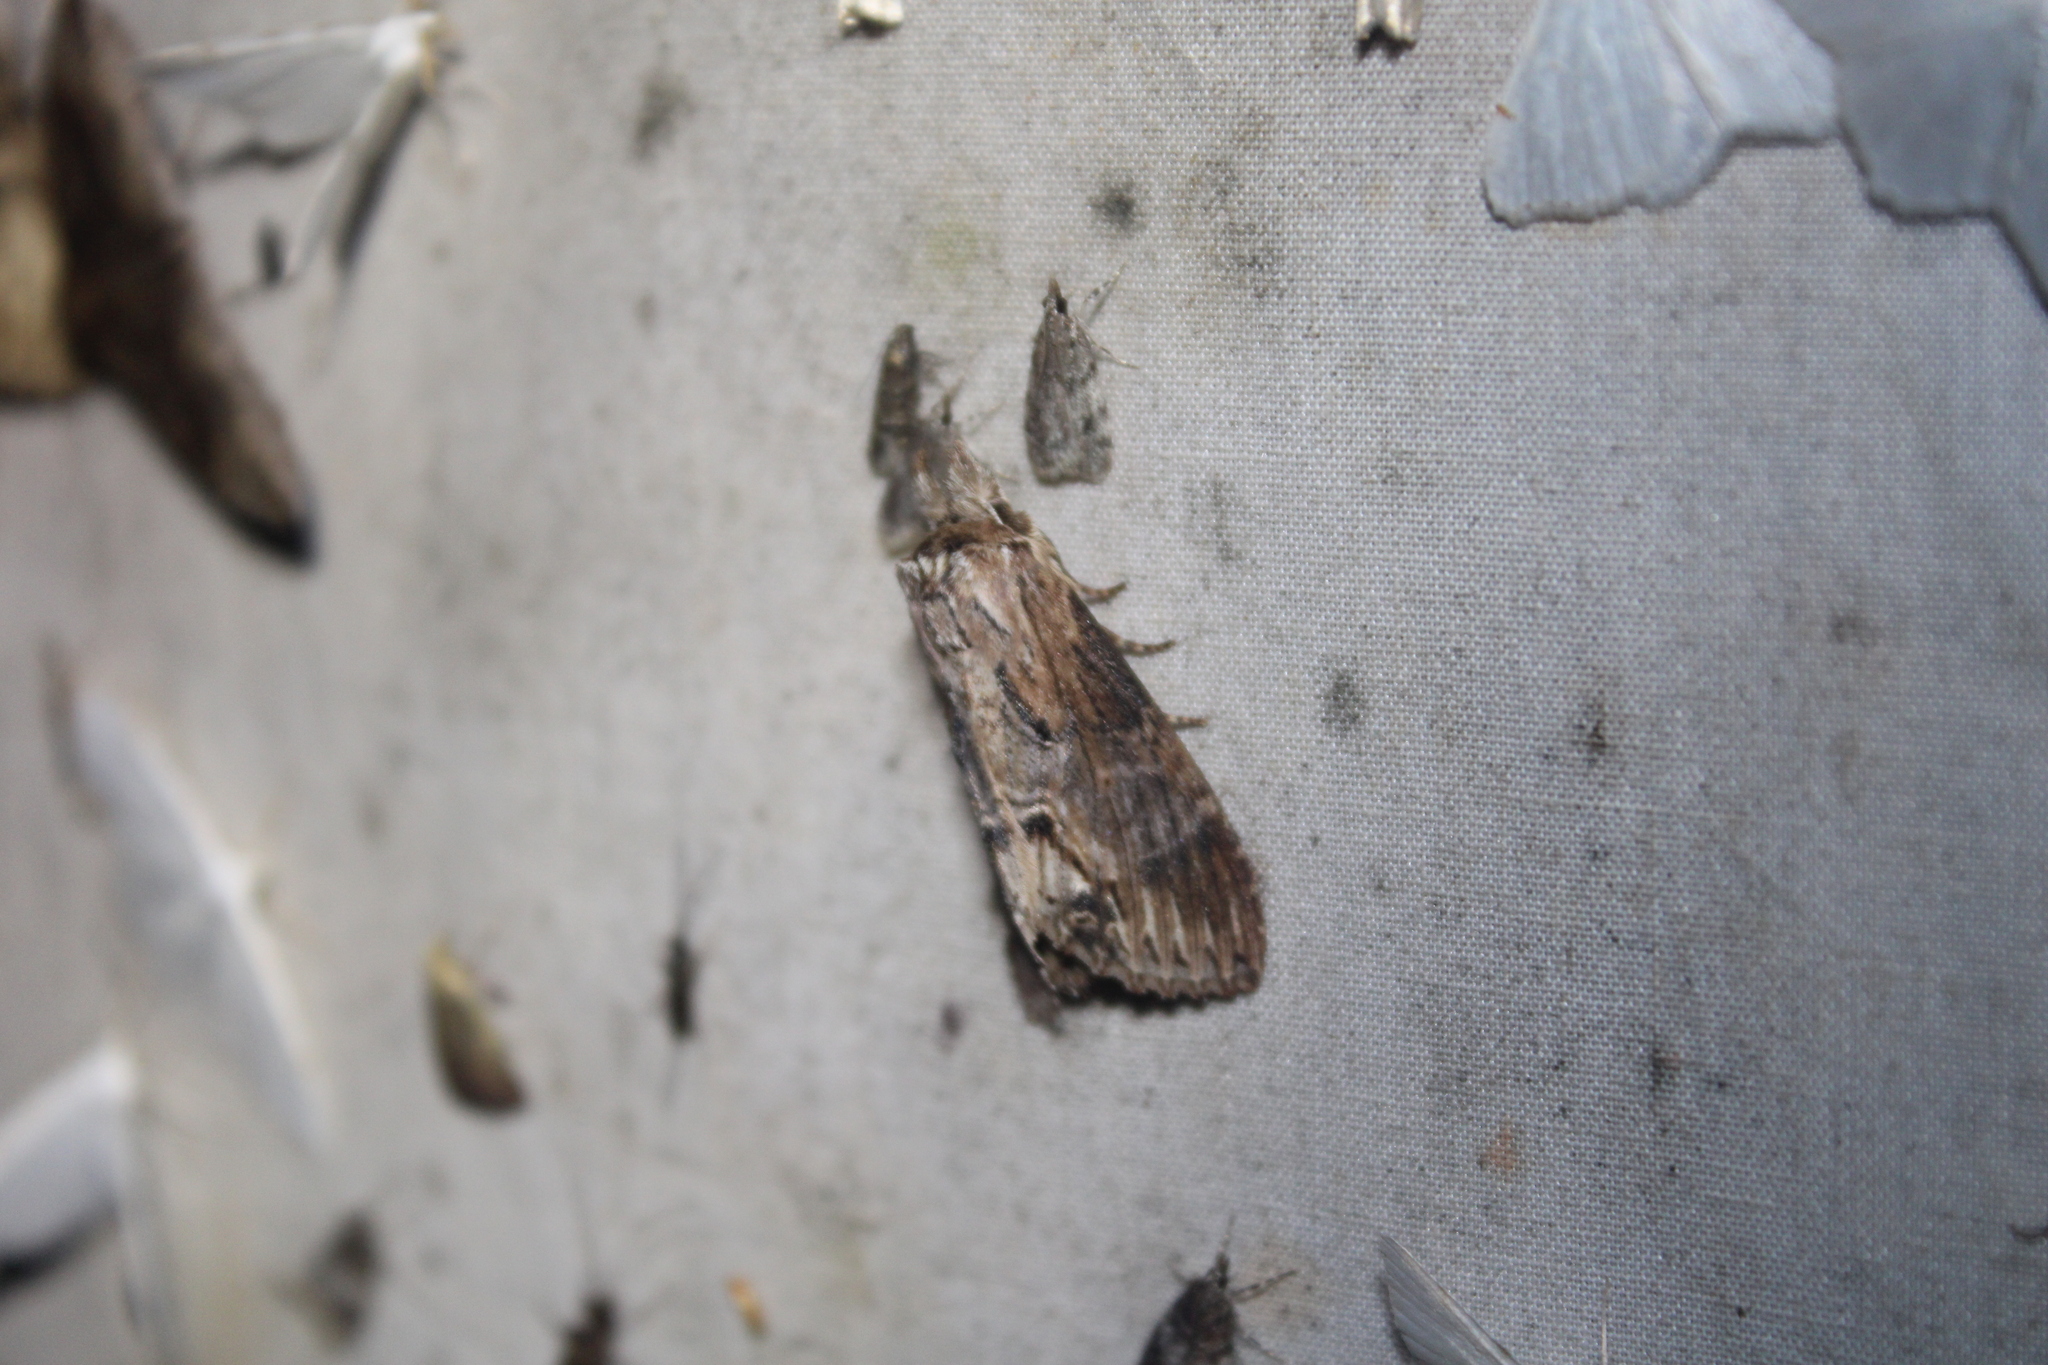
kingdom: Animalia
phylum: Arthropoda
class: Insecta
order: Lepidoptera
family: Notodontidae
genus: Dasylophia
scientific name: Dasylophia thyatiroides
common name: Gray-patched prominent
